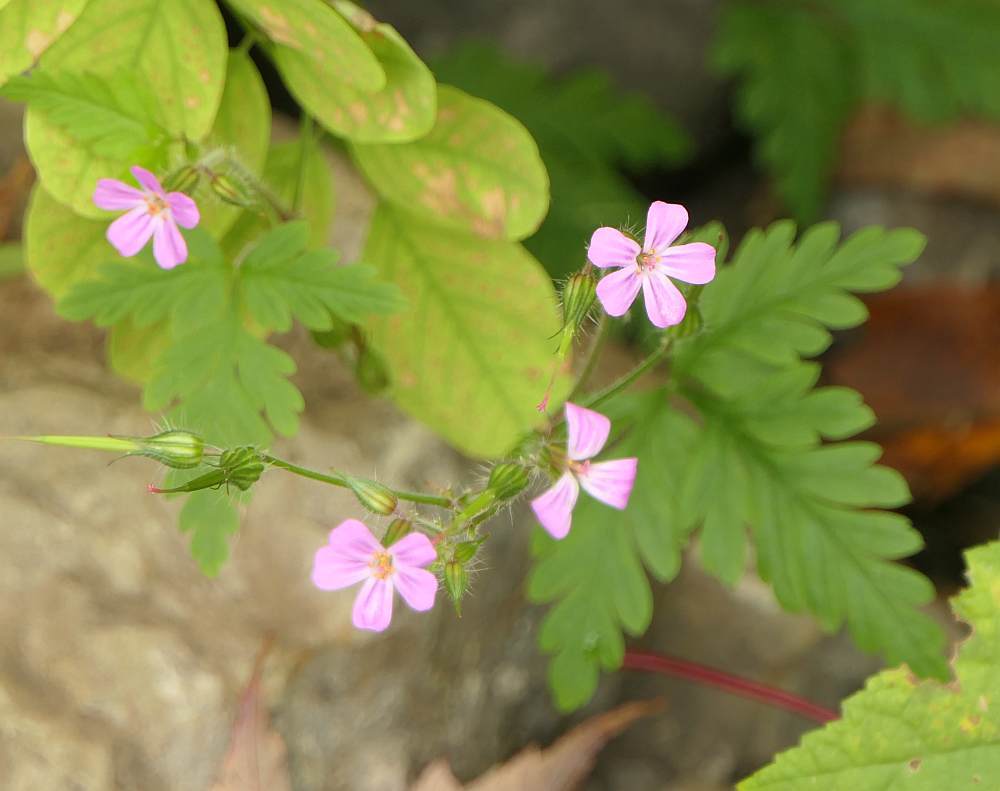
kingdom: Plantae
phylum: Tracheophyta
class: Magnoliopsida
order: Geraniales
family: Geraniaceae
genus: Geranium
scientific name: Geranium robertianum
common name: Herb-robert
